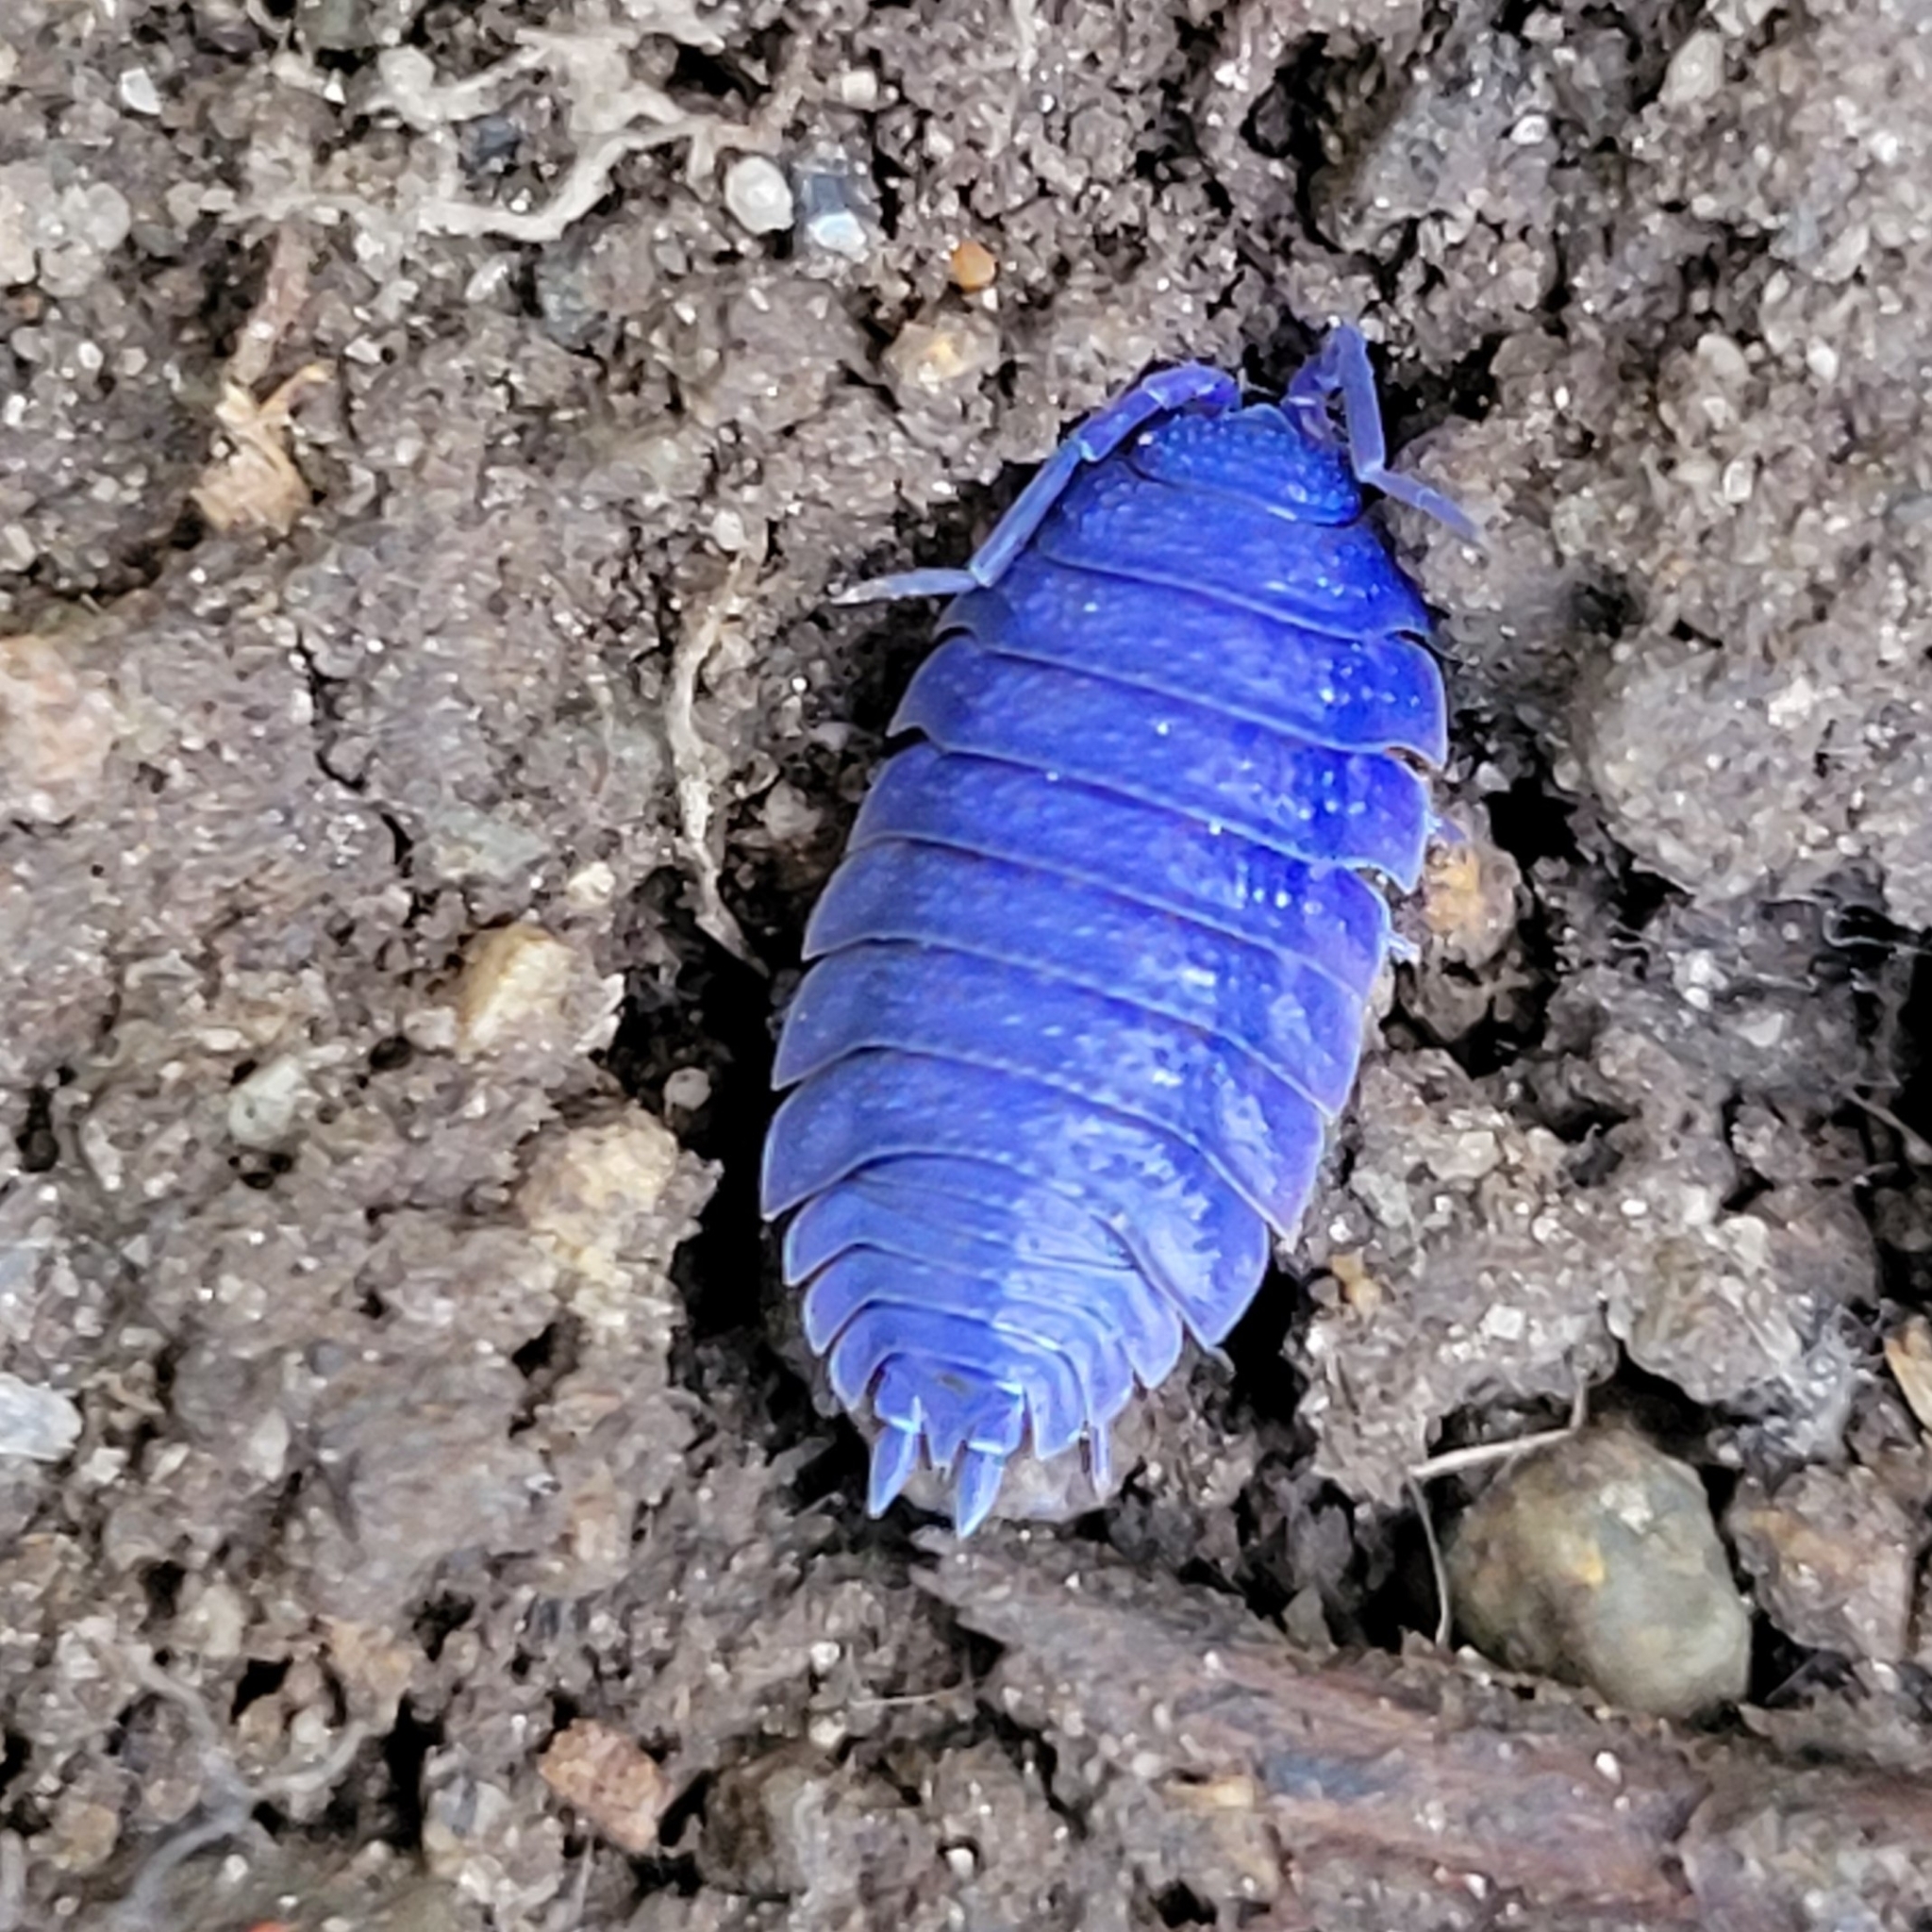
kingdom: Viruses
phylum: Nucleocytoviricota
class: Megaviricetes
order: Pimascovirales
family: Iridoviridae
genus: Iridovirus
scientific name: Iridovirus Invertebrate iridescent virus 31
